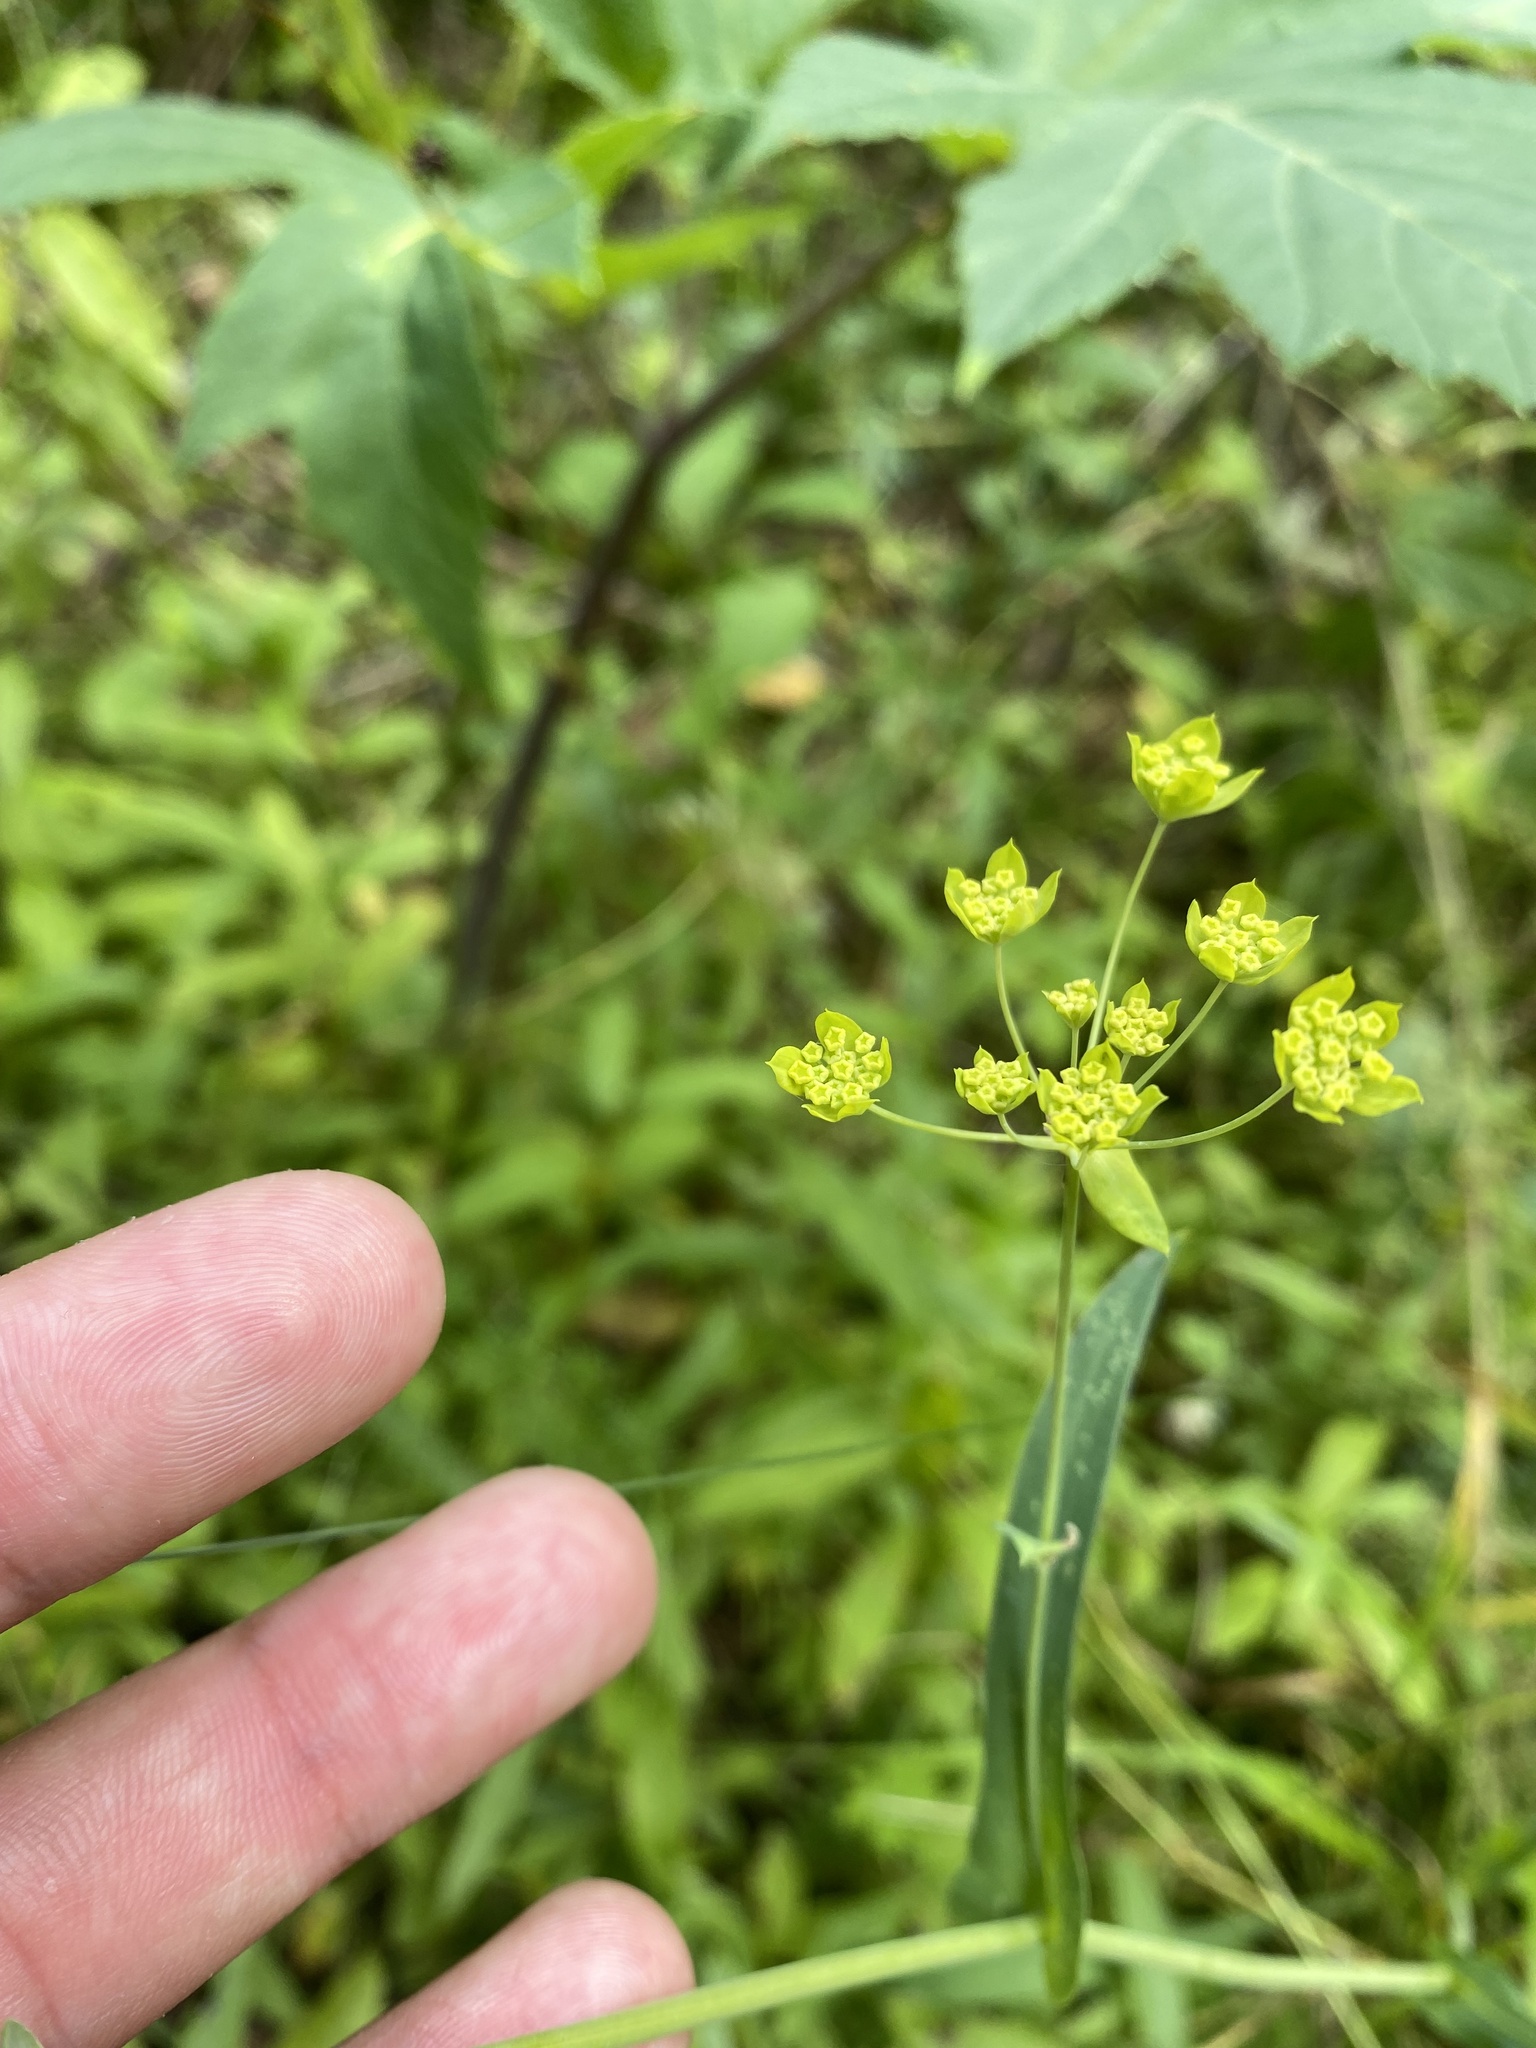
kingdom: Plantae
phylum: Tracheophyta
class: Magnoliopsida
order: Apiales
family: Apiaceae
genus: Bupleurum
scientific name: Bupleurum multinerve
